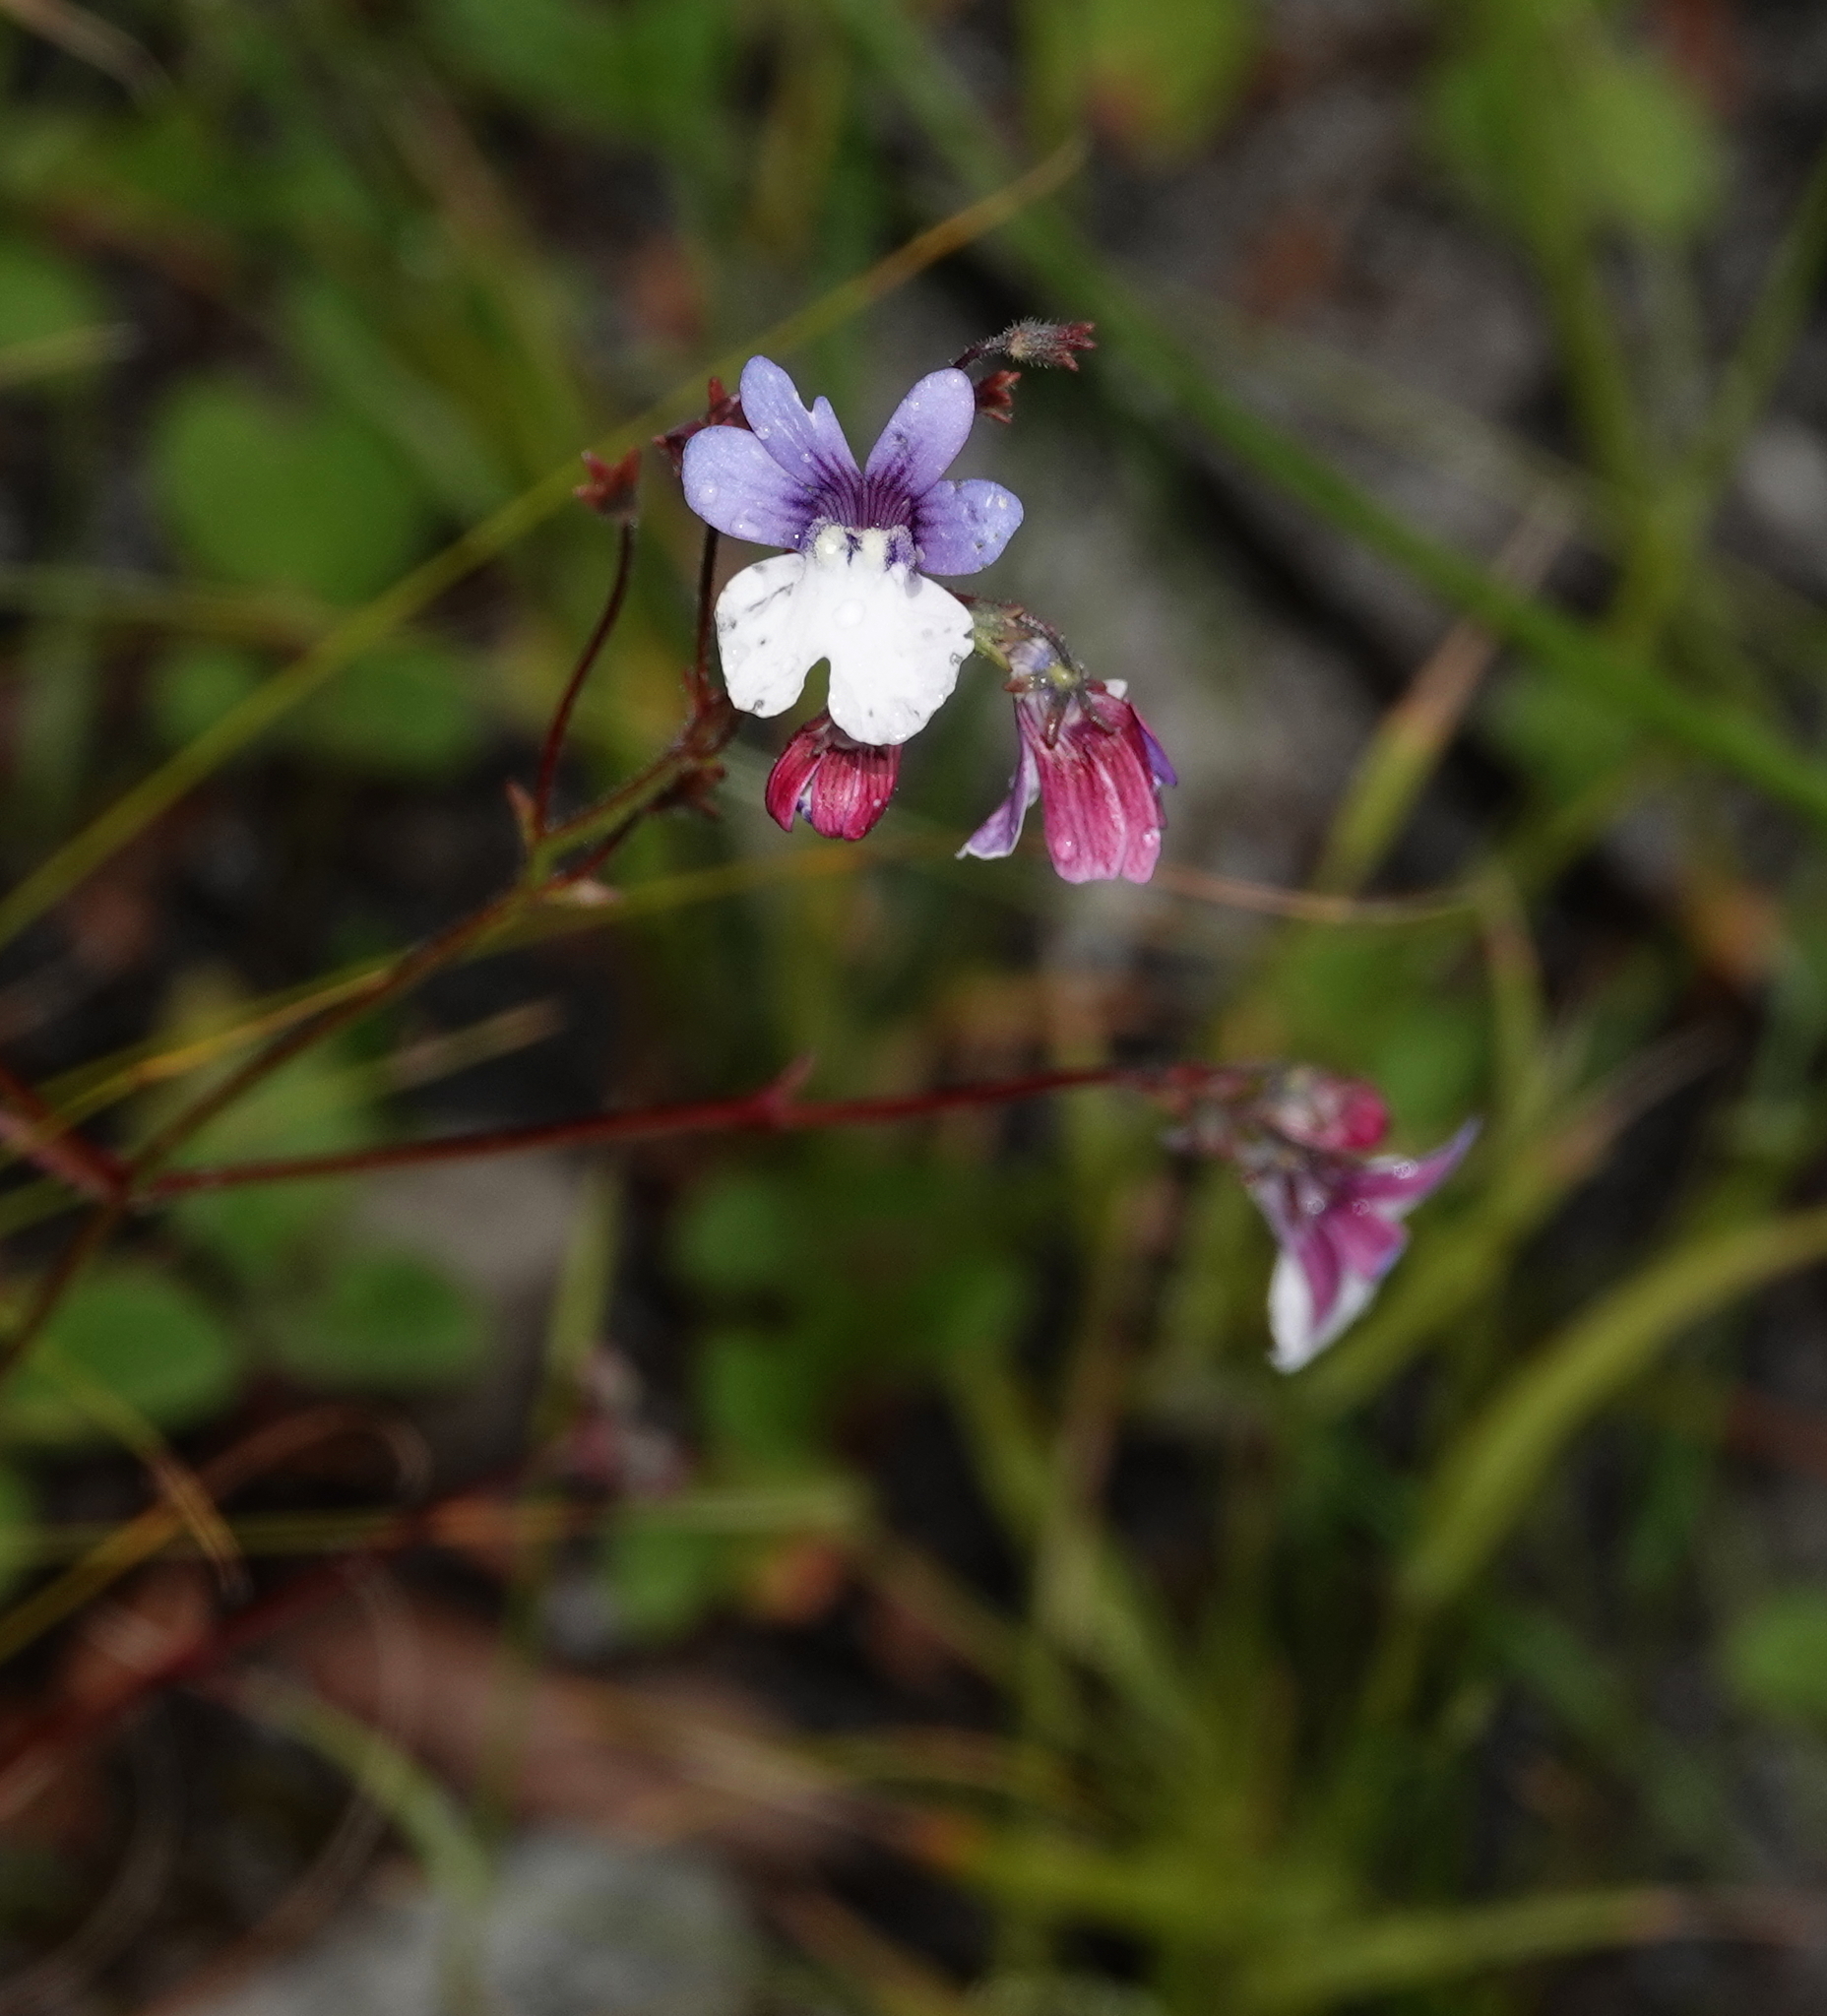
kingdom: Plantae
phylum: Tracheophyta
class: Magnoliopsida
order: Lamiales
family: Scrophulariaceae
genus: Nemesia
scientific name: Nemesia affinis
